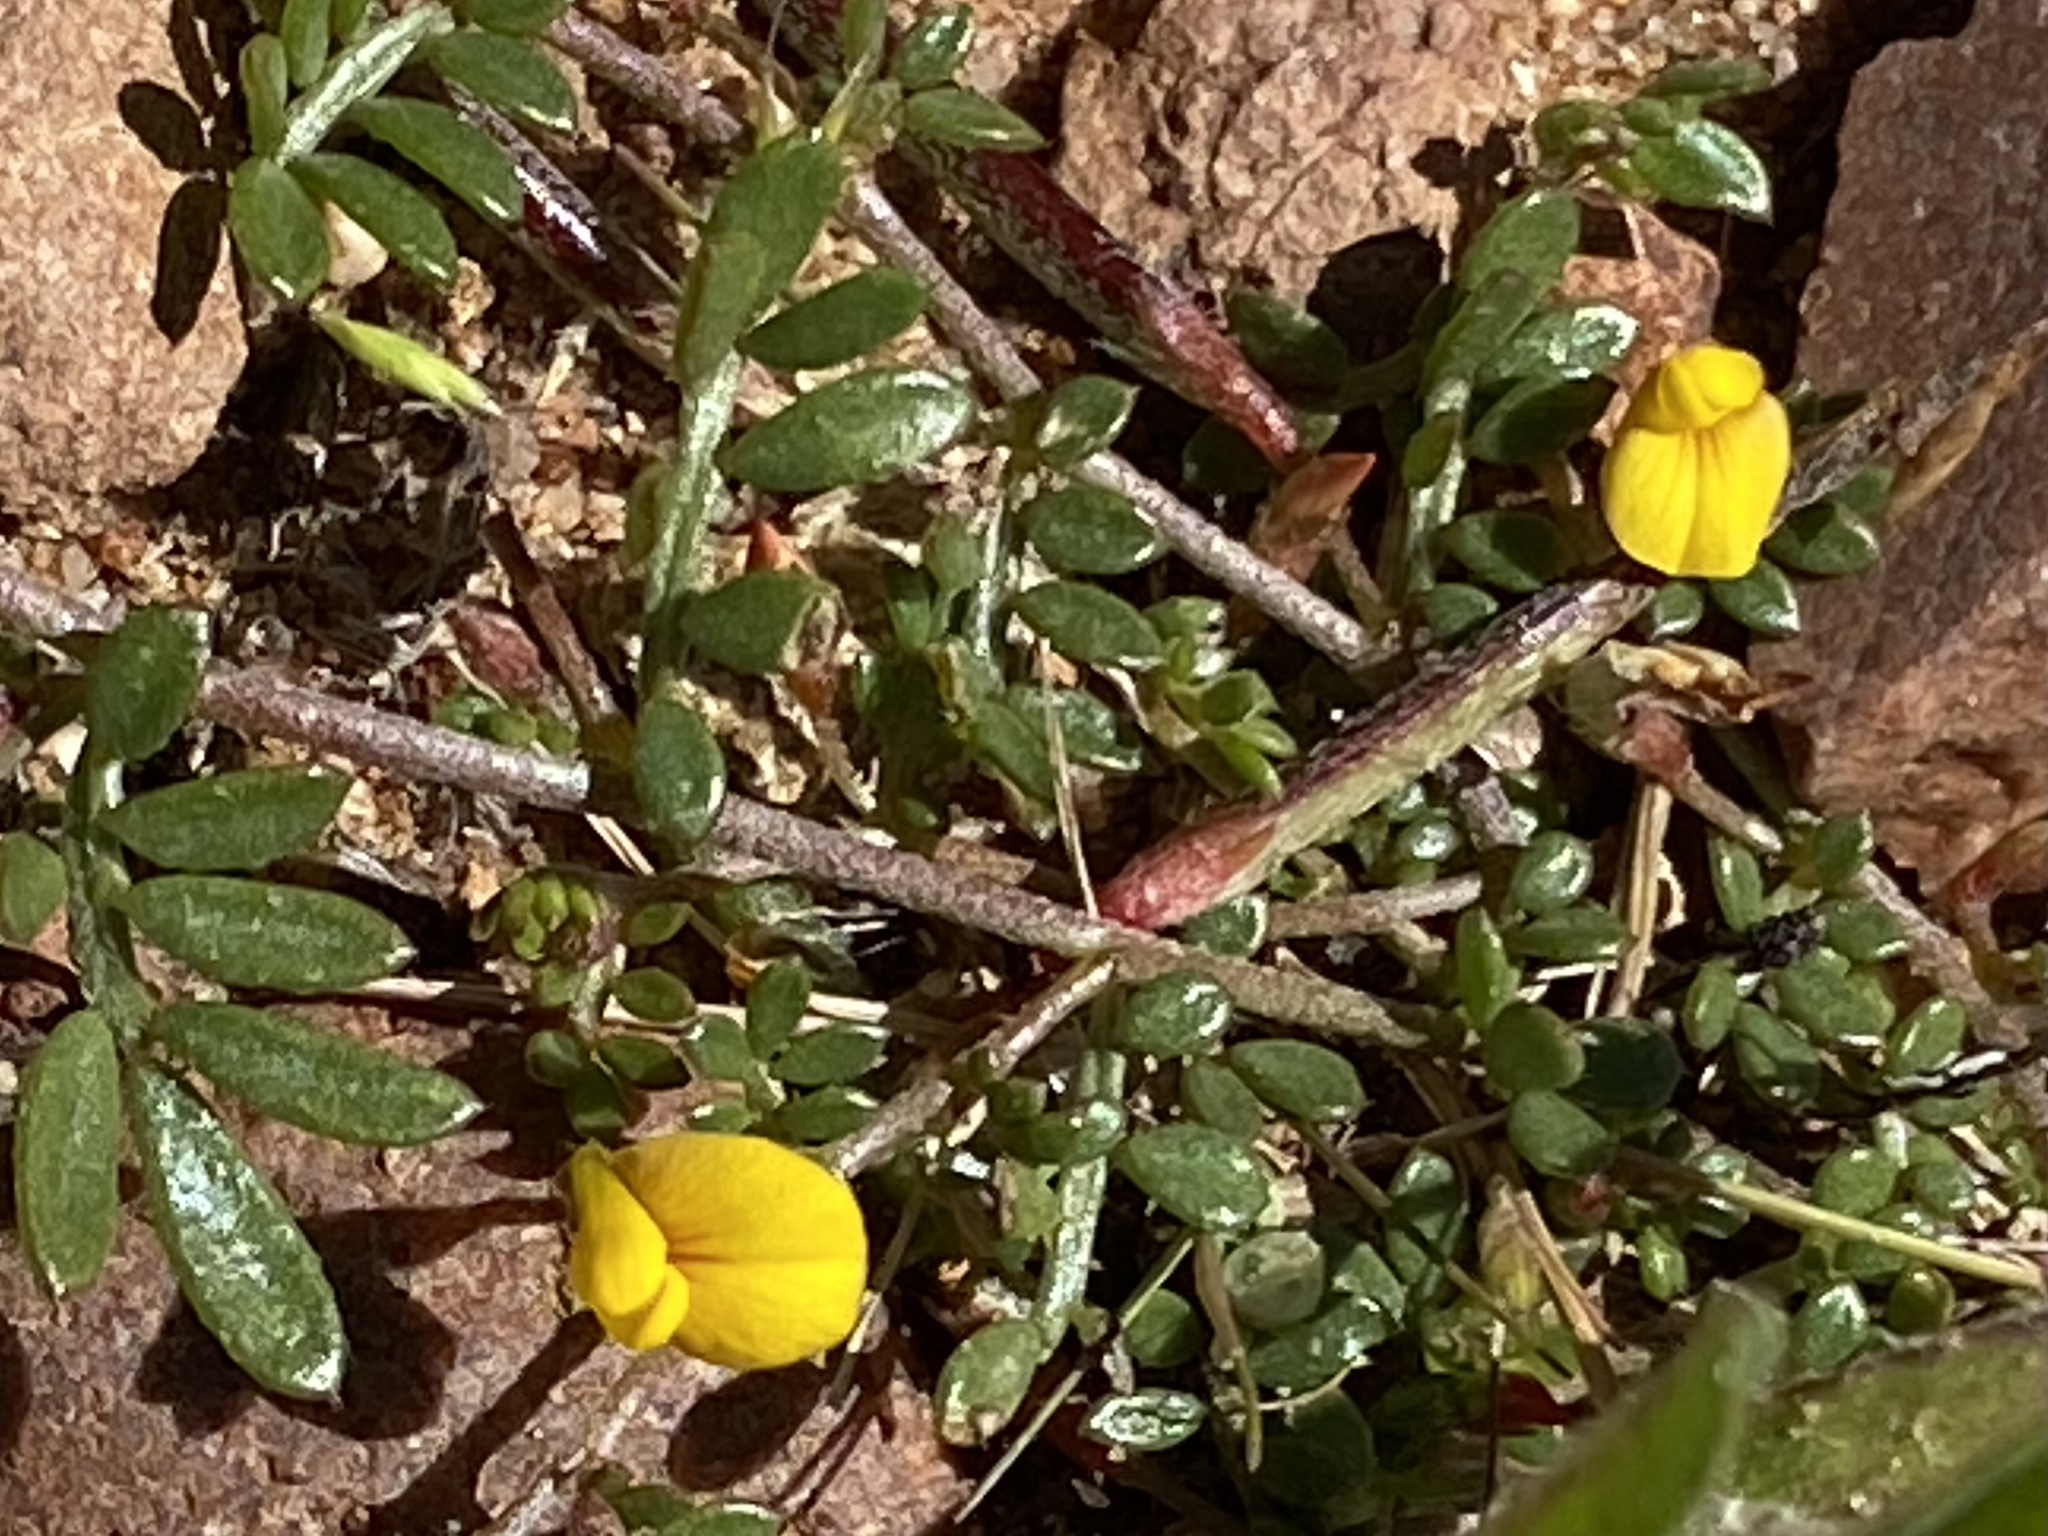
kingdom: Plantae
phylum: Tracheophyta
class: Magnoliopsida
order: Fabales
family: Fabaceae
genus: Acmispon
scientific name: Acmispon strigosus
